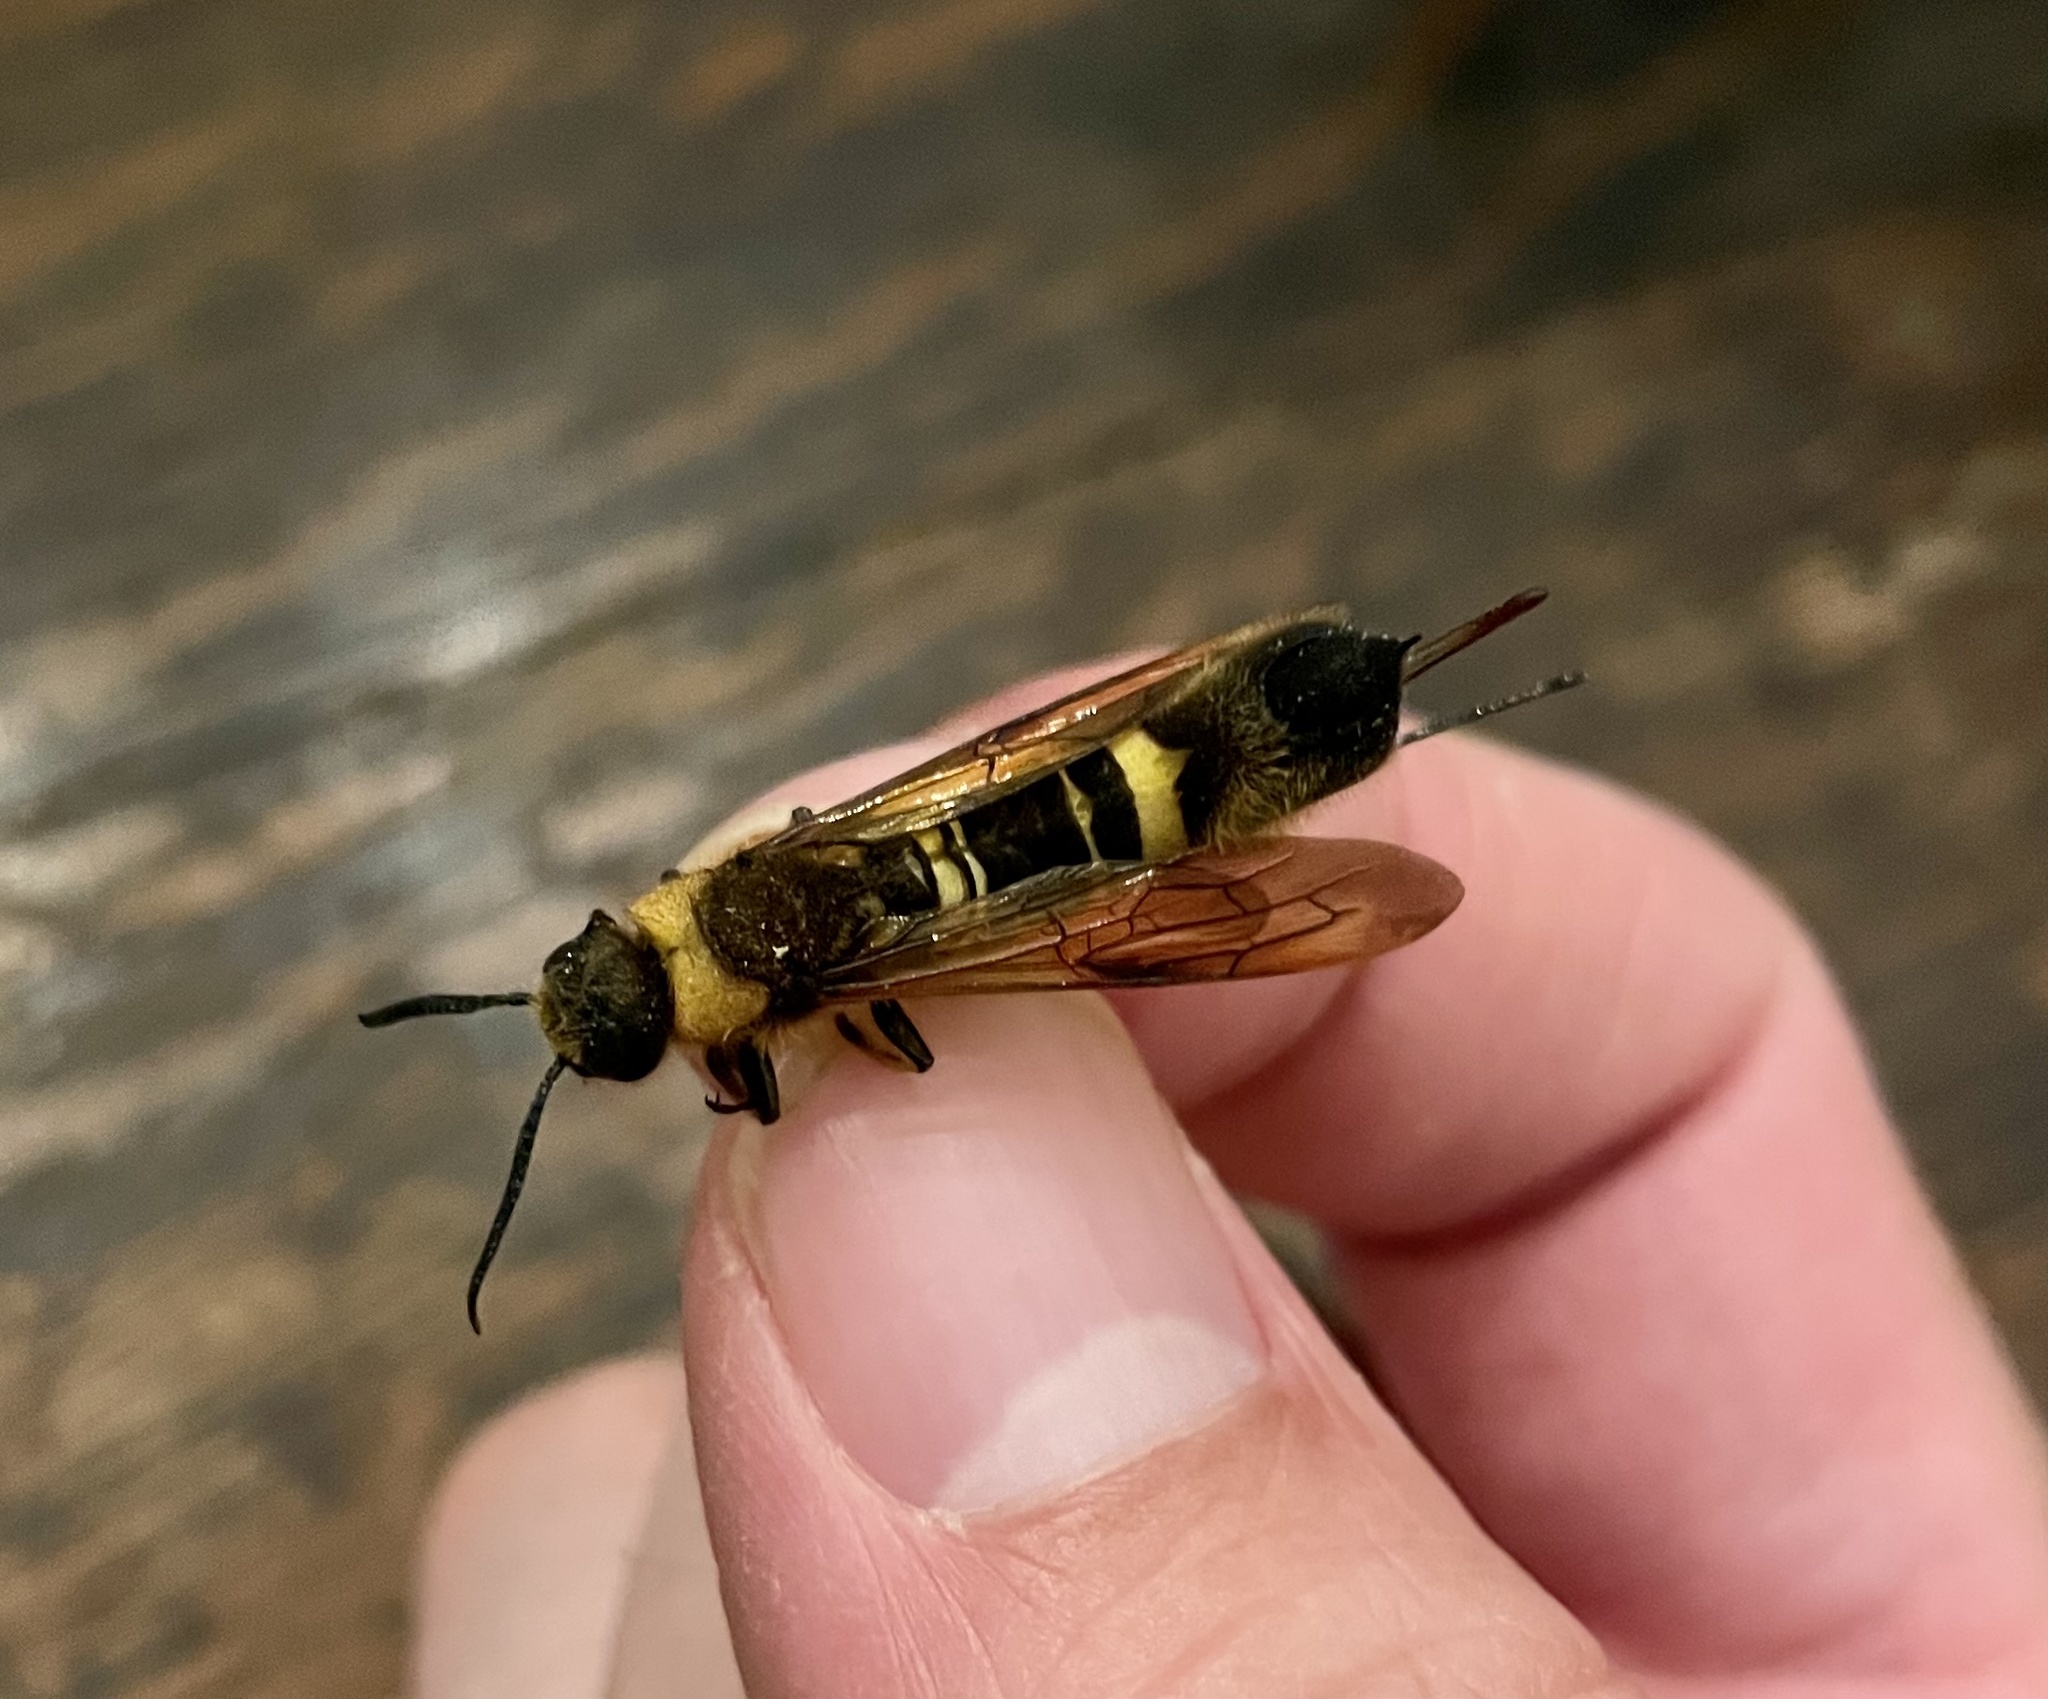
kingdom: Animalia
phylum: Arthropoda
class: Insecta
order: Hymenoptera
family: Siricidae
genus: Eriotremex
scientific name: Eriotremex formosanus
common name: Asian horntail
